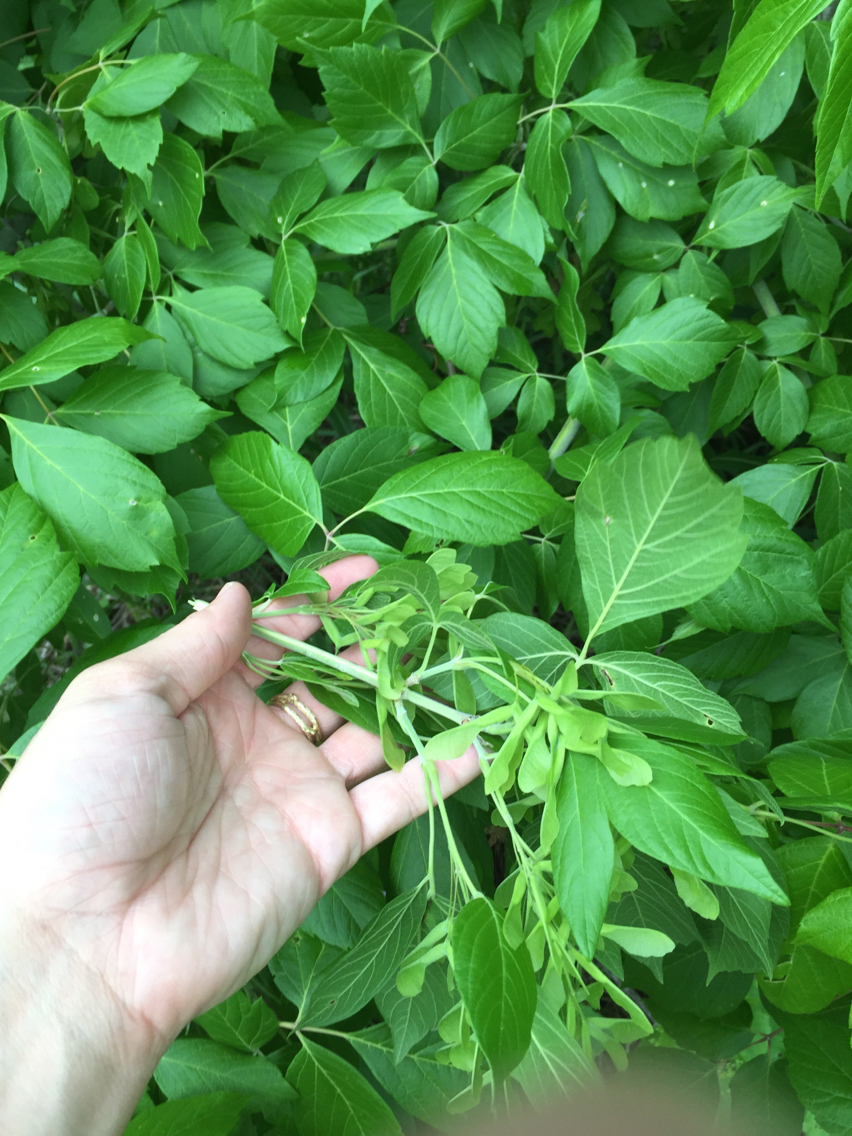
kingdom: Plantae
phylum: Tracheophyta
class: Magnoliopsida
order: Sapindales
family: Sapindaceae
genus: Acer
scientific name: Acer negundo
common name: Ashleaf maple
